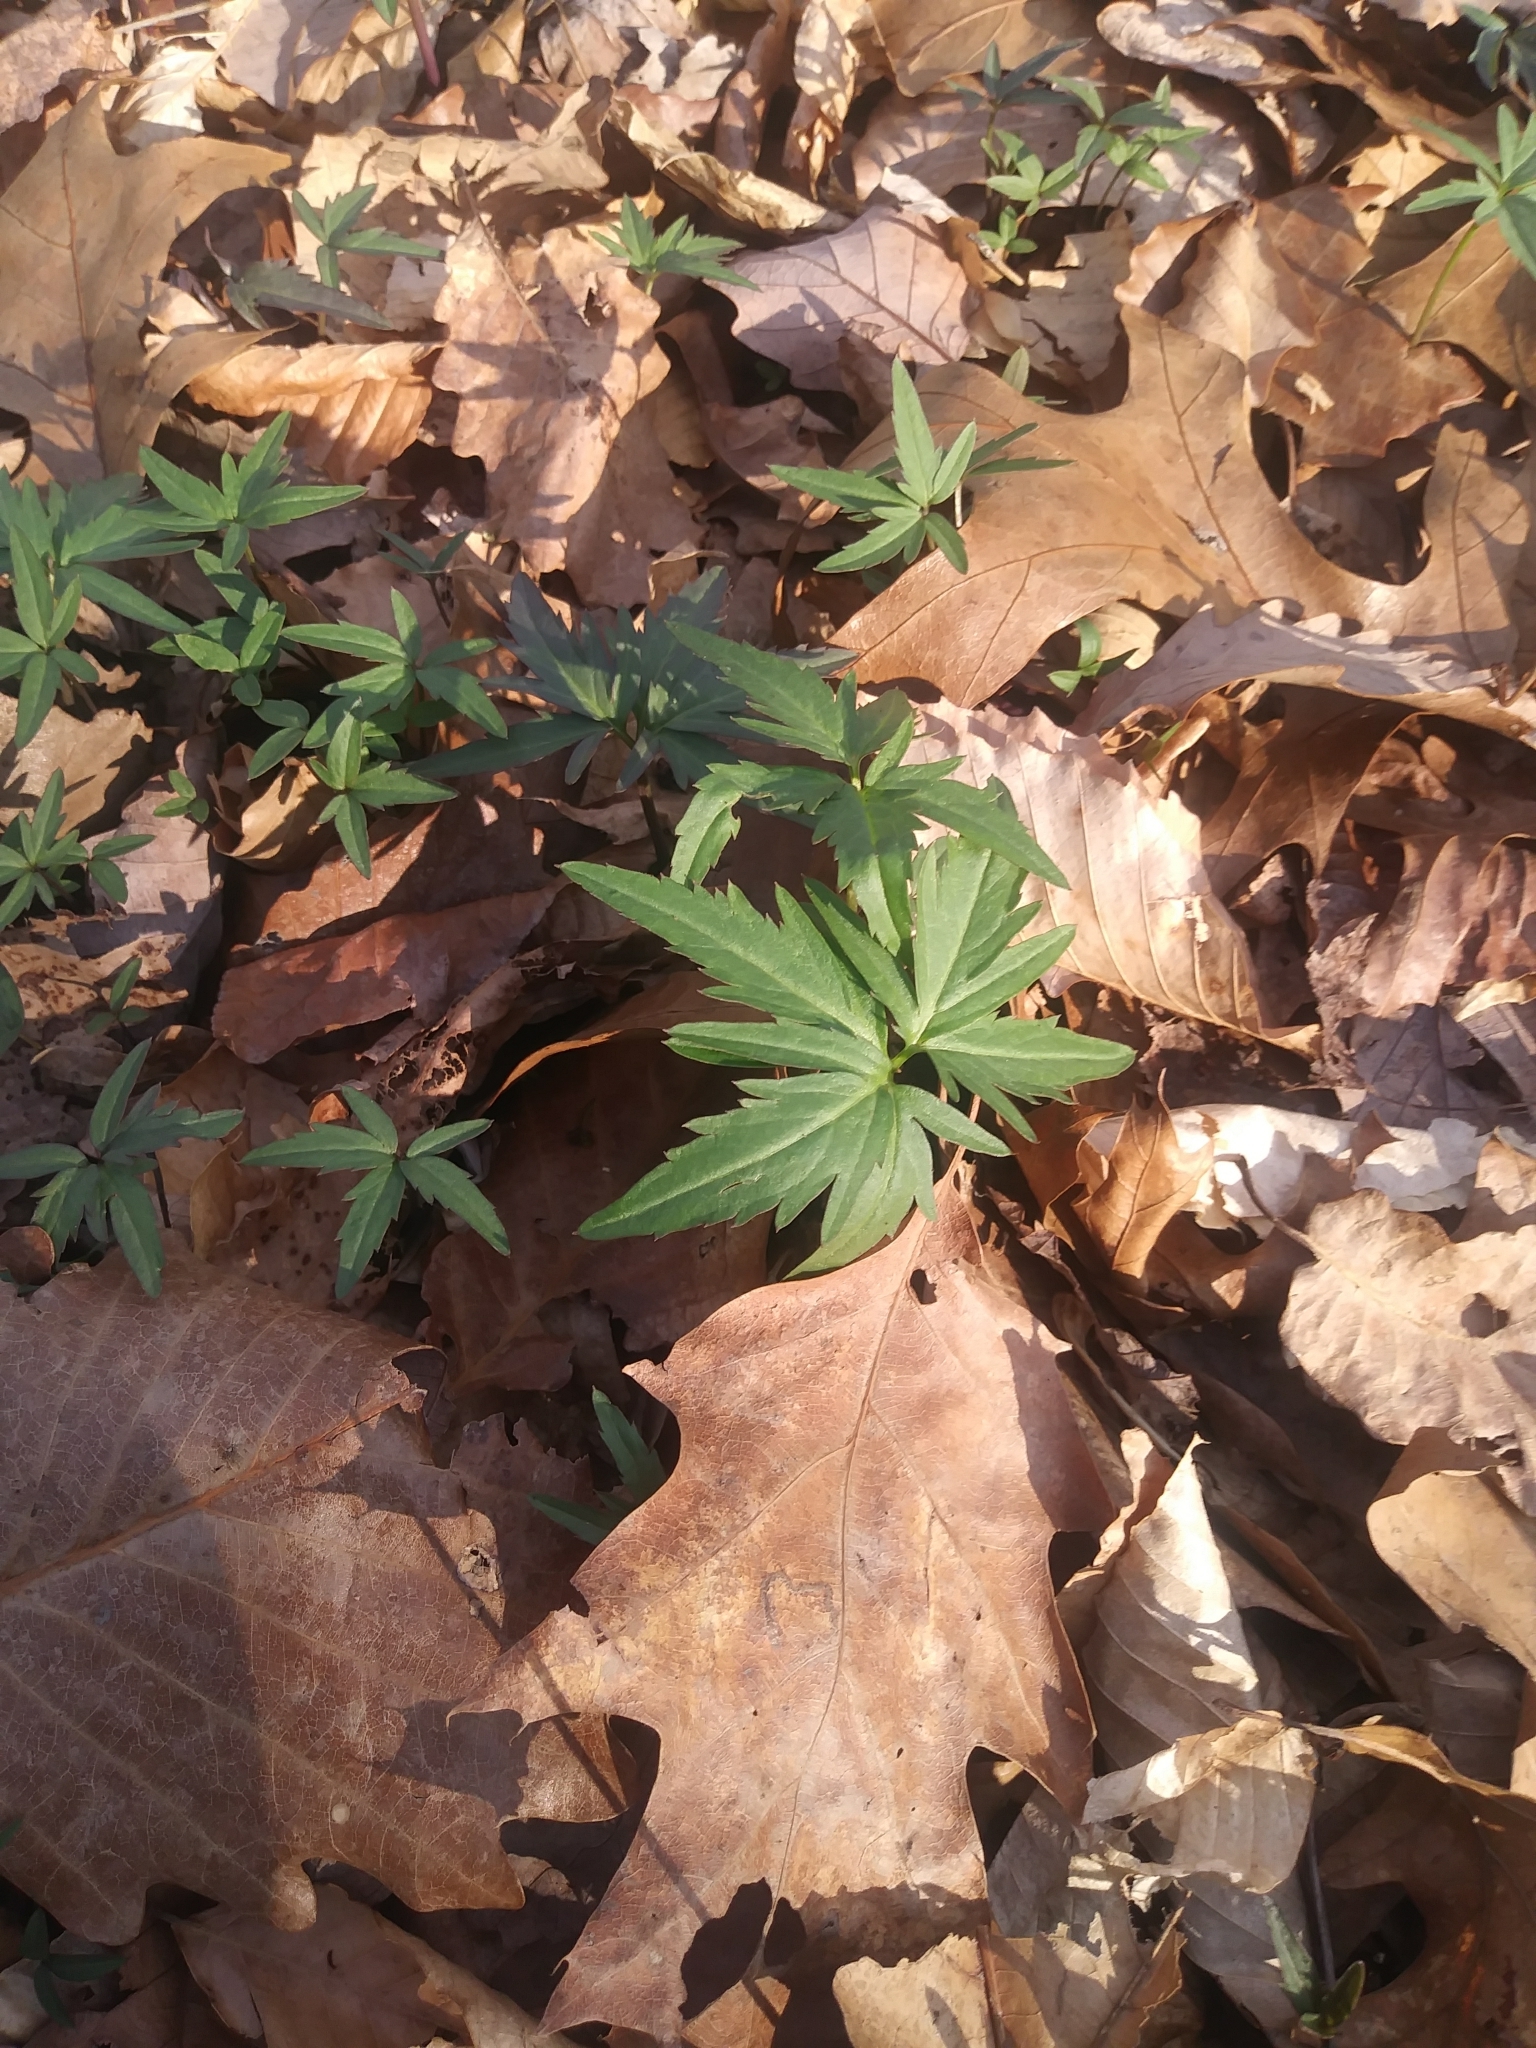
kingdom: Plantae
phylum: Tracheophyta
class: Magnoliopsida
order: Brassicales
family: Brassicaceae
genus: Cardamine
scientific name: Cardamine concatenata
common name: Cut-leaf toothcup
